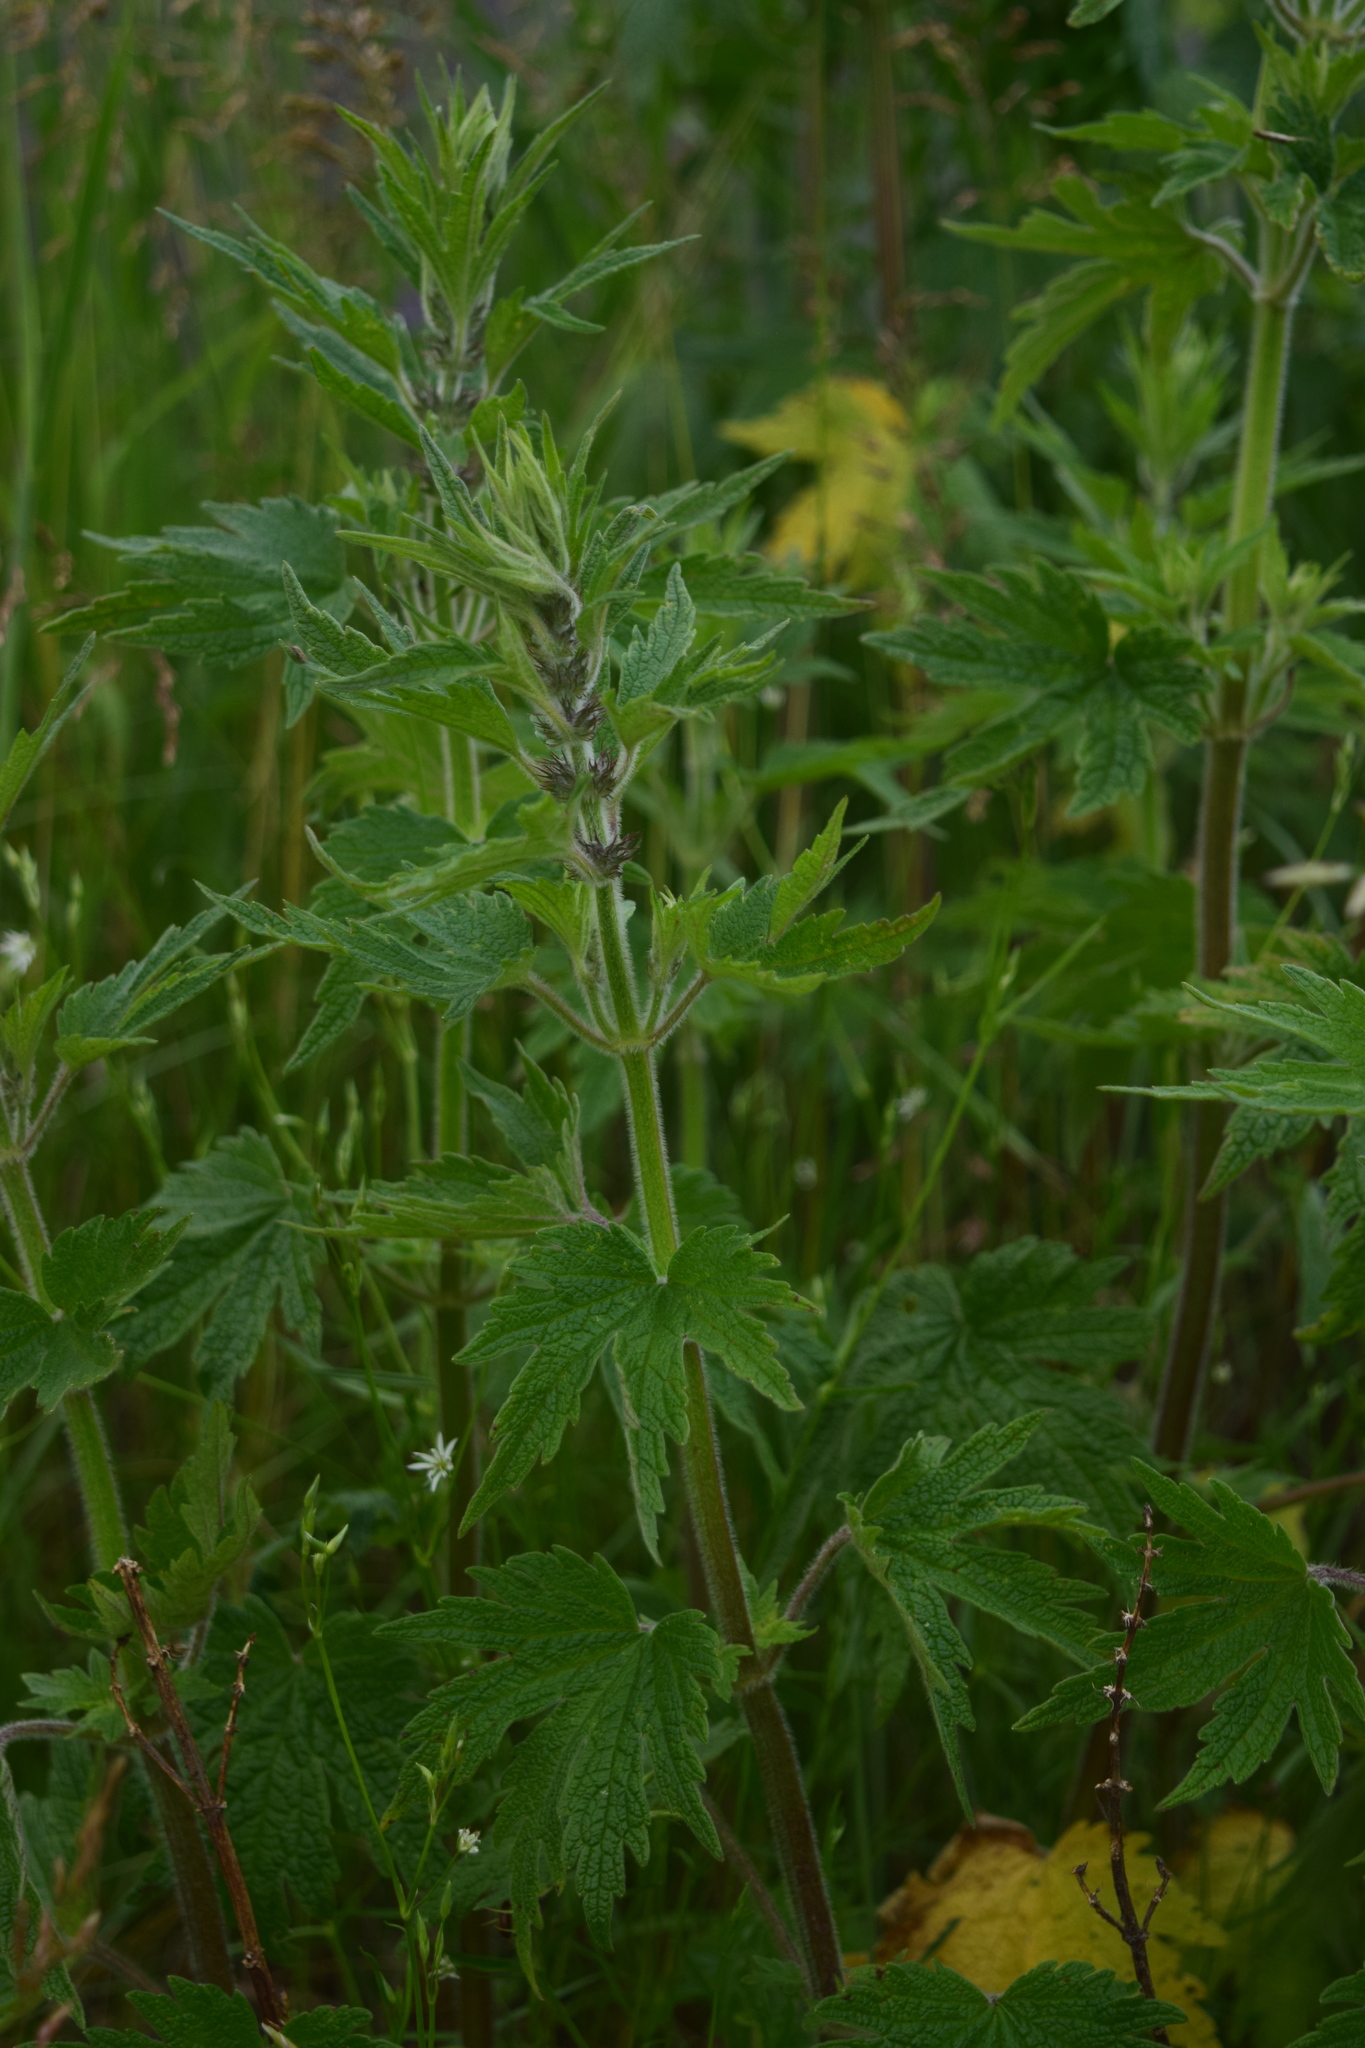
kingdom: Plantae
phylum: Tracheophyta
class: Magnoliopsida
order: Lamiales
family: Lamiaceae
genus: Leonurus
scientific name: Leonurus quinquelobatus
